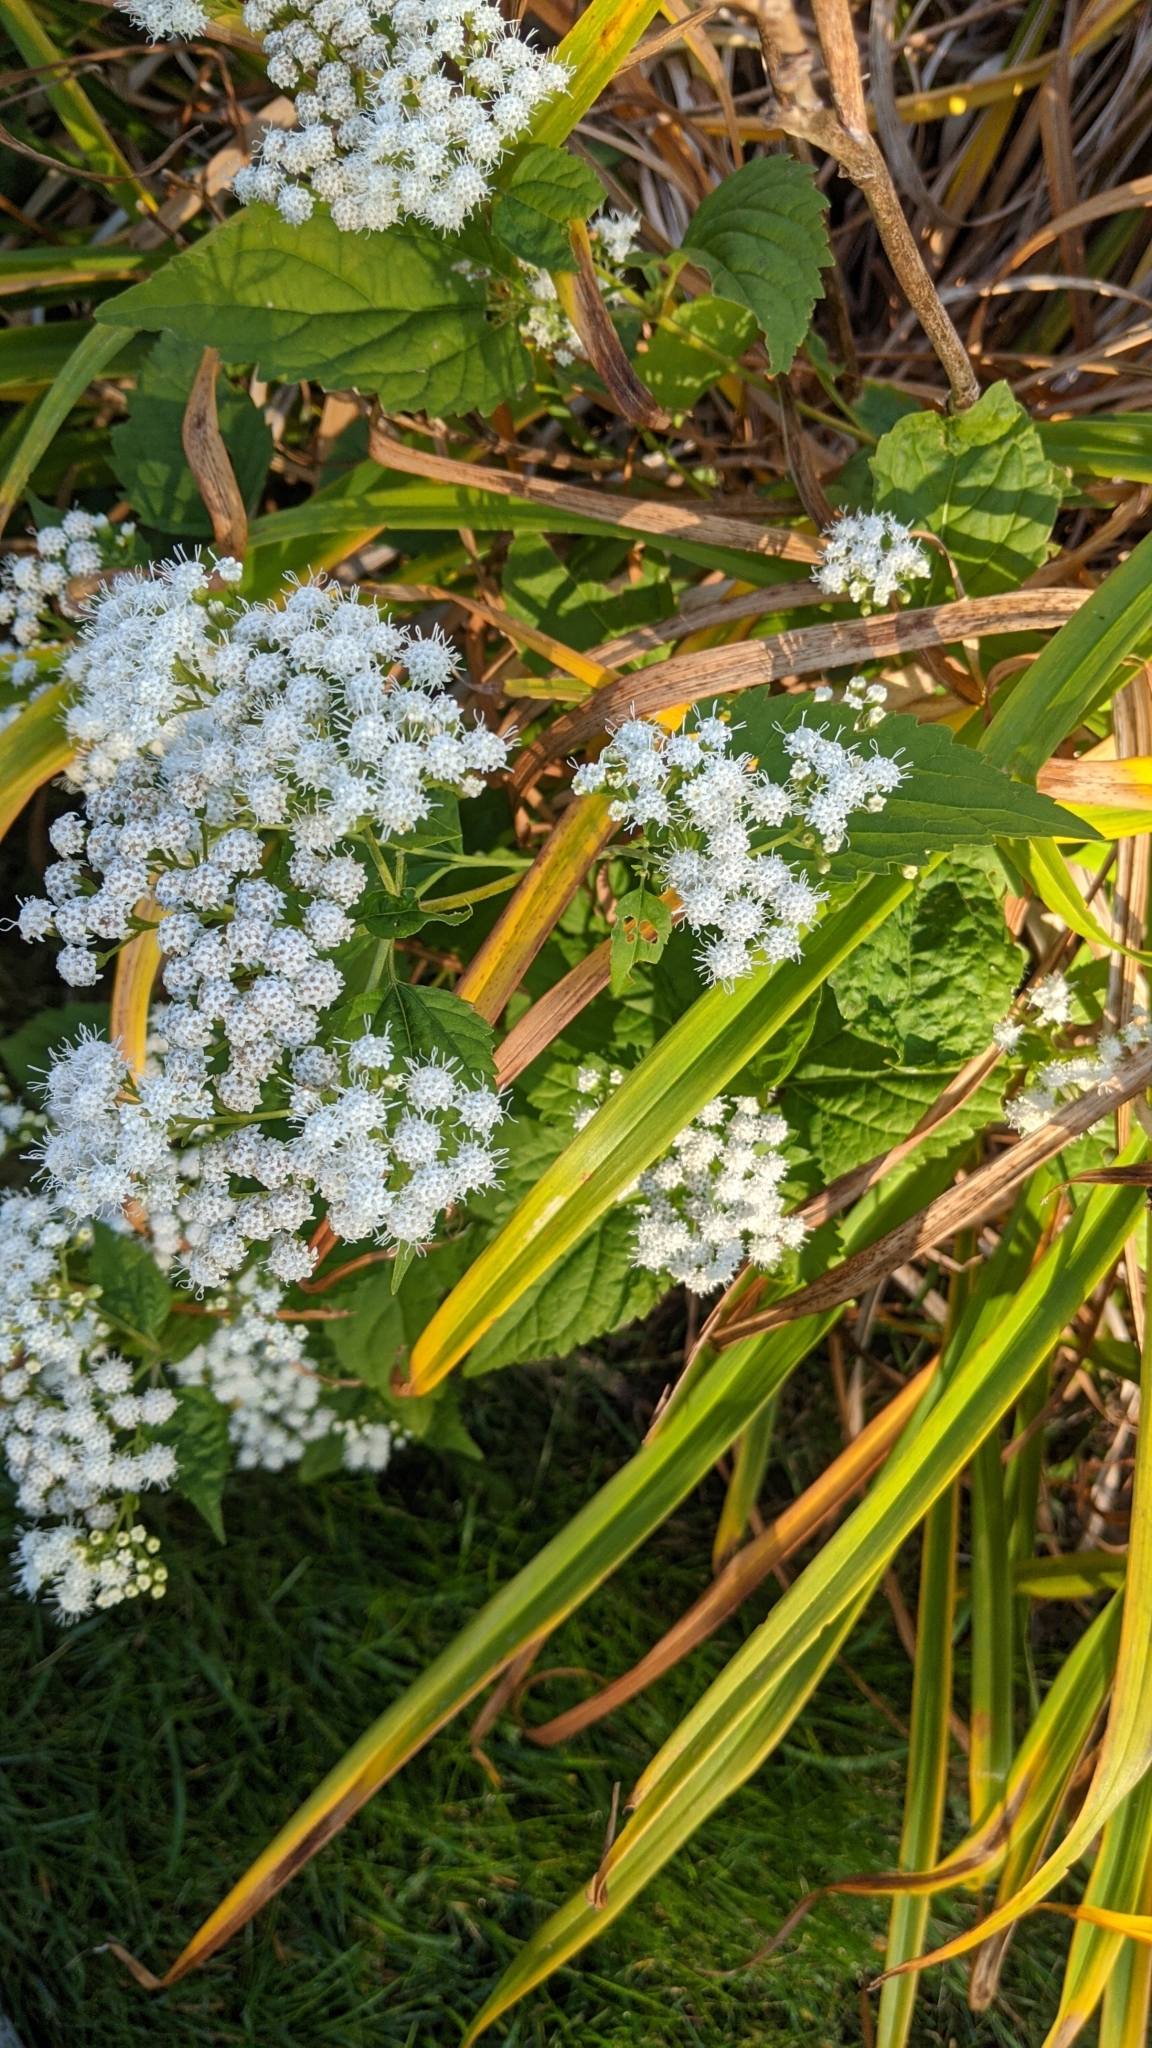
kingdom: Plantae
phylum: Tracheophyta
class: Magnoliopsida
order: Asterales
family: Asteraceae
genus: Ageratina
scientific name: Ageratina altissima
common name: White snakeroot
